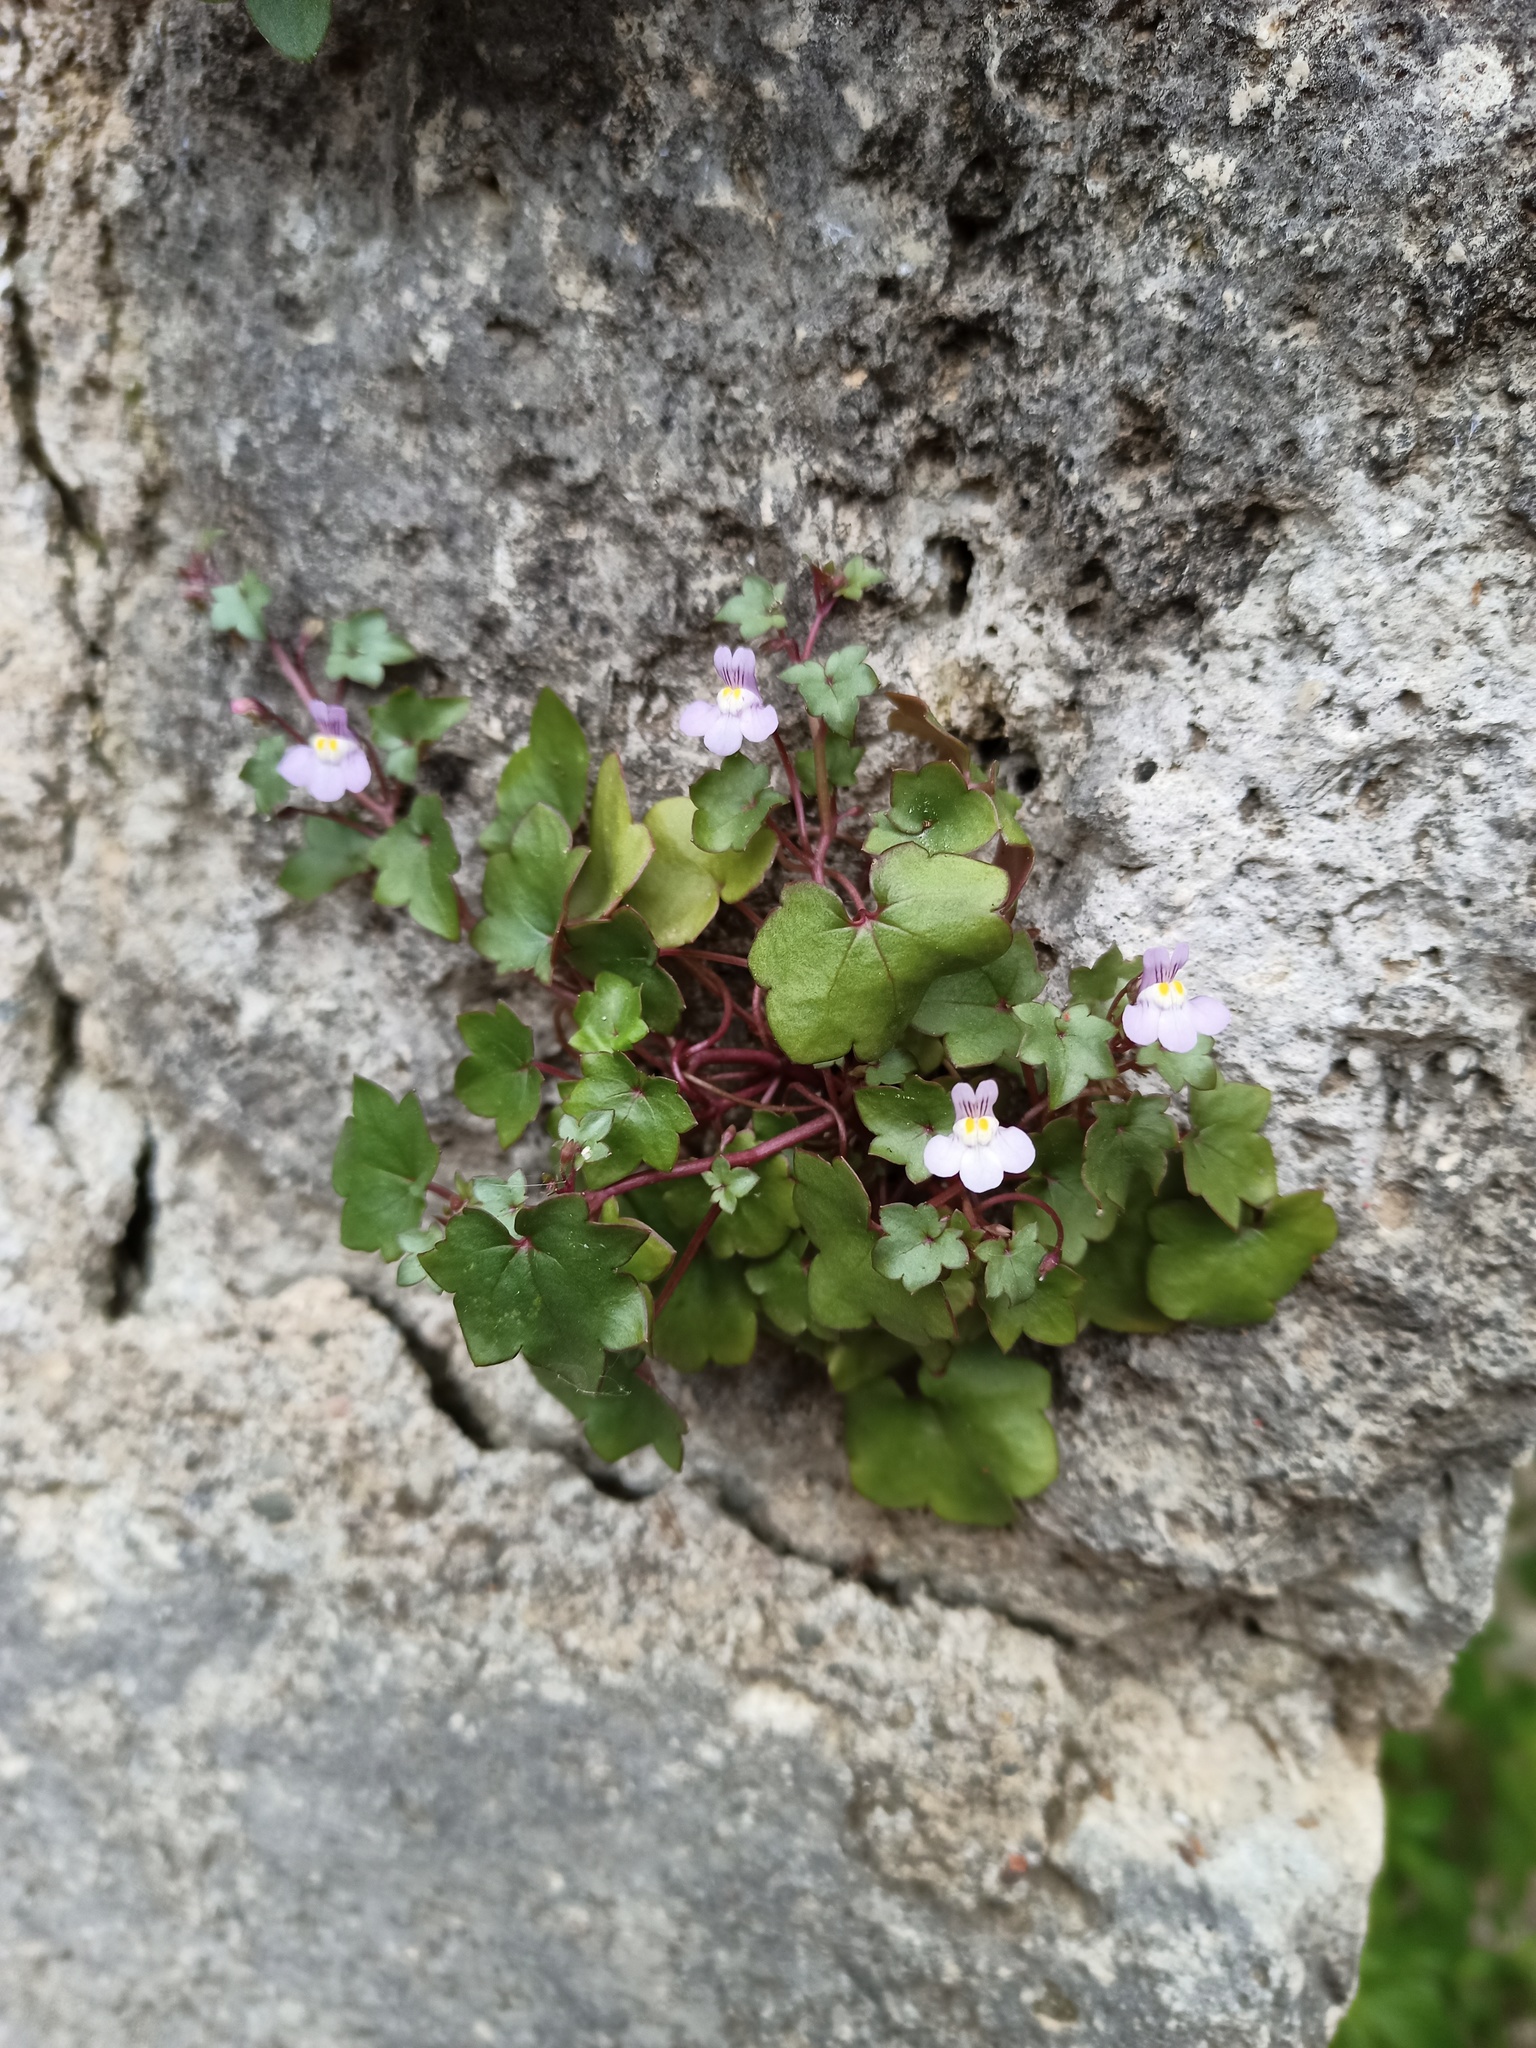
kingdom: Plantae
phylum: Tracheophyta
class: Magnoliopsida
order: Lamiales
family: Plantaginaceae
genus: Cymbalaria
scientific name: Cymbalaria muralis
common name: Ivy-leaved toadflax
